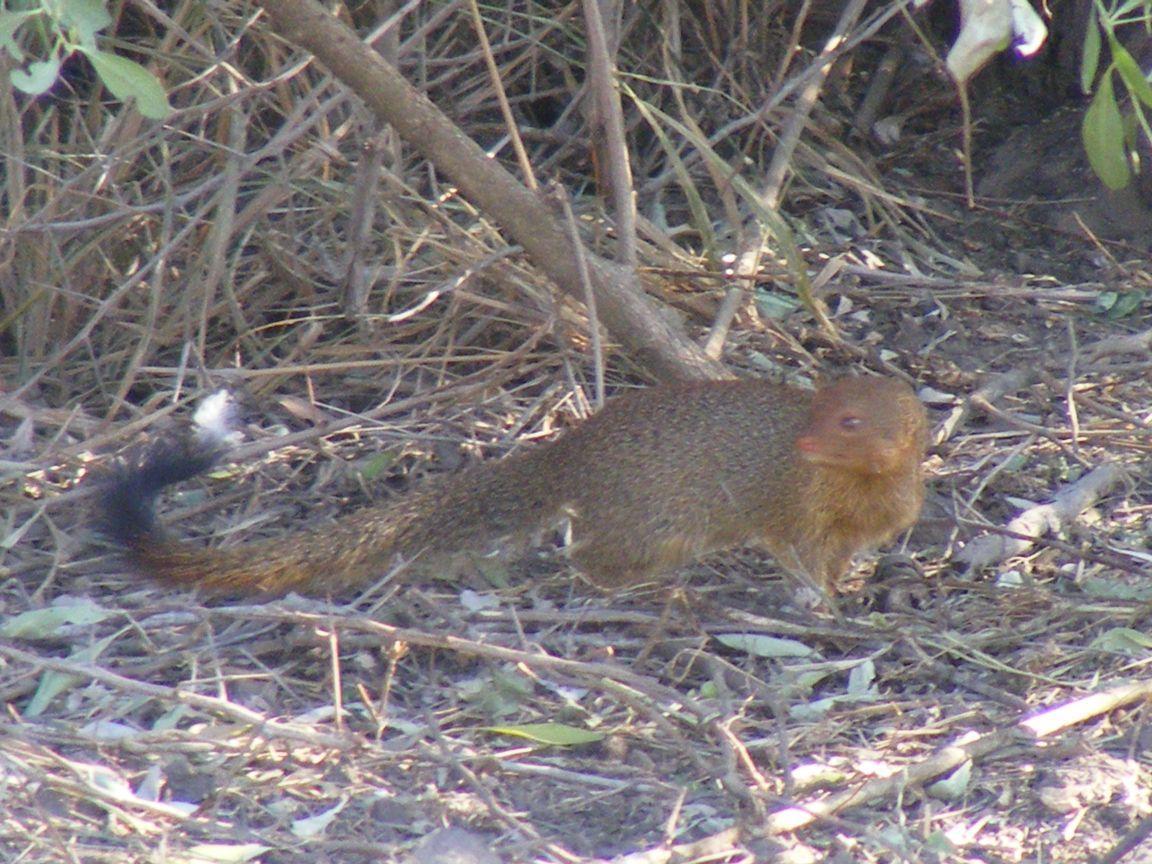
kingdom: Animalia
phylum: Chordata
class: Mammalia
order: Carnivora
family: Herpestidae
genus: Galerella
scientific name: Galerella sanguinea
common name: Slender mongoose
